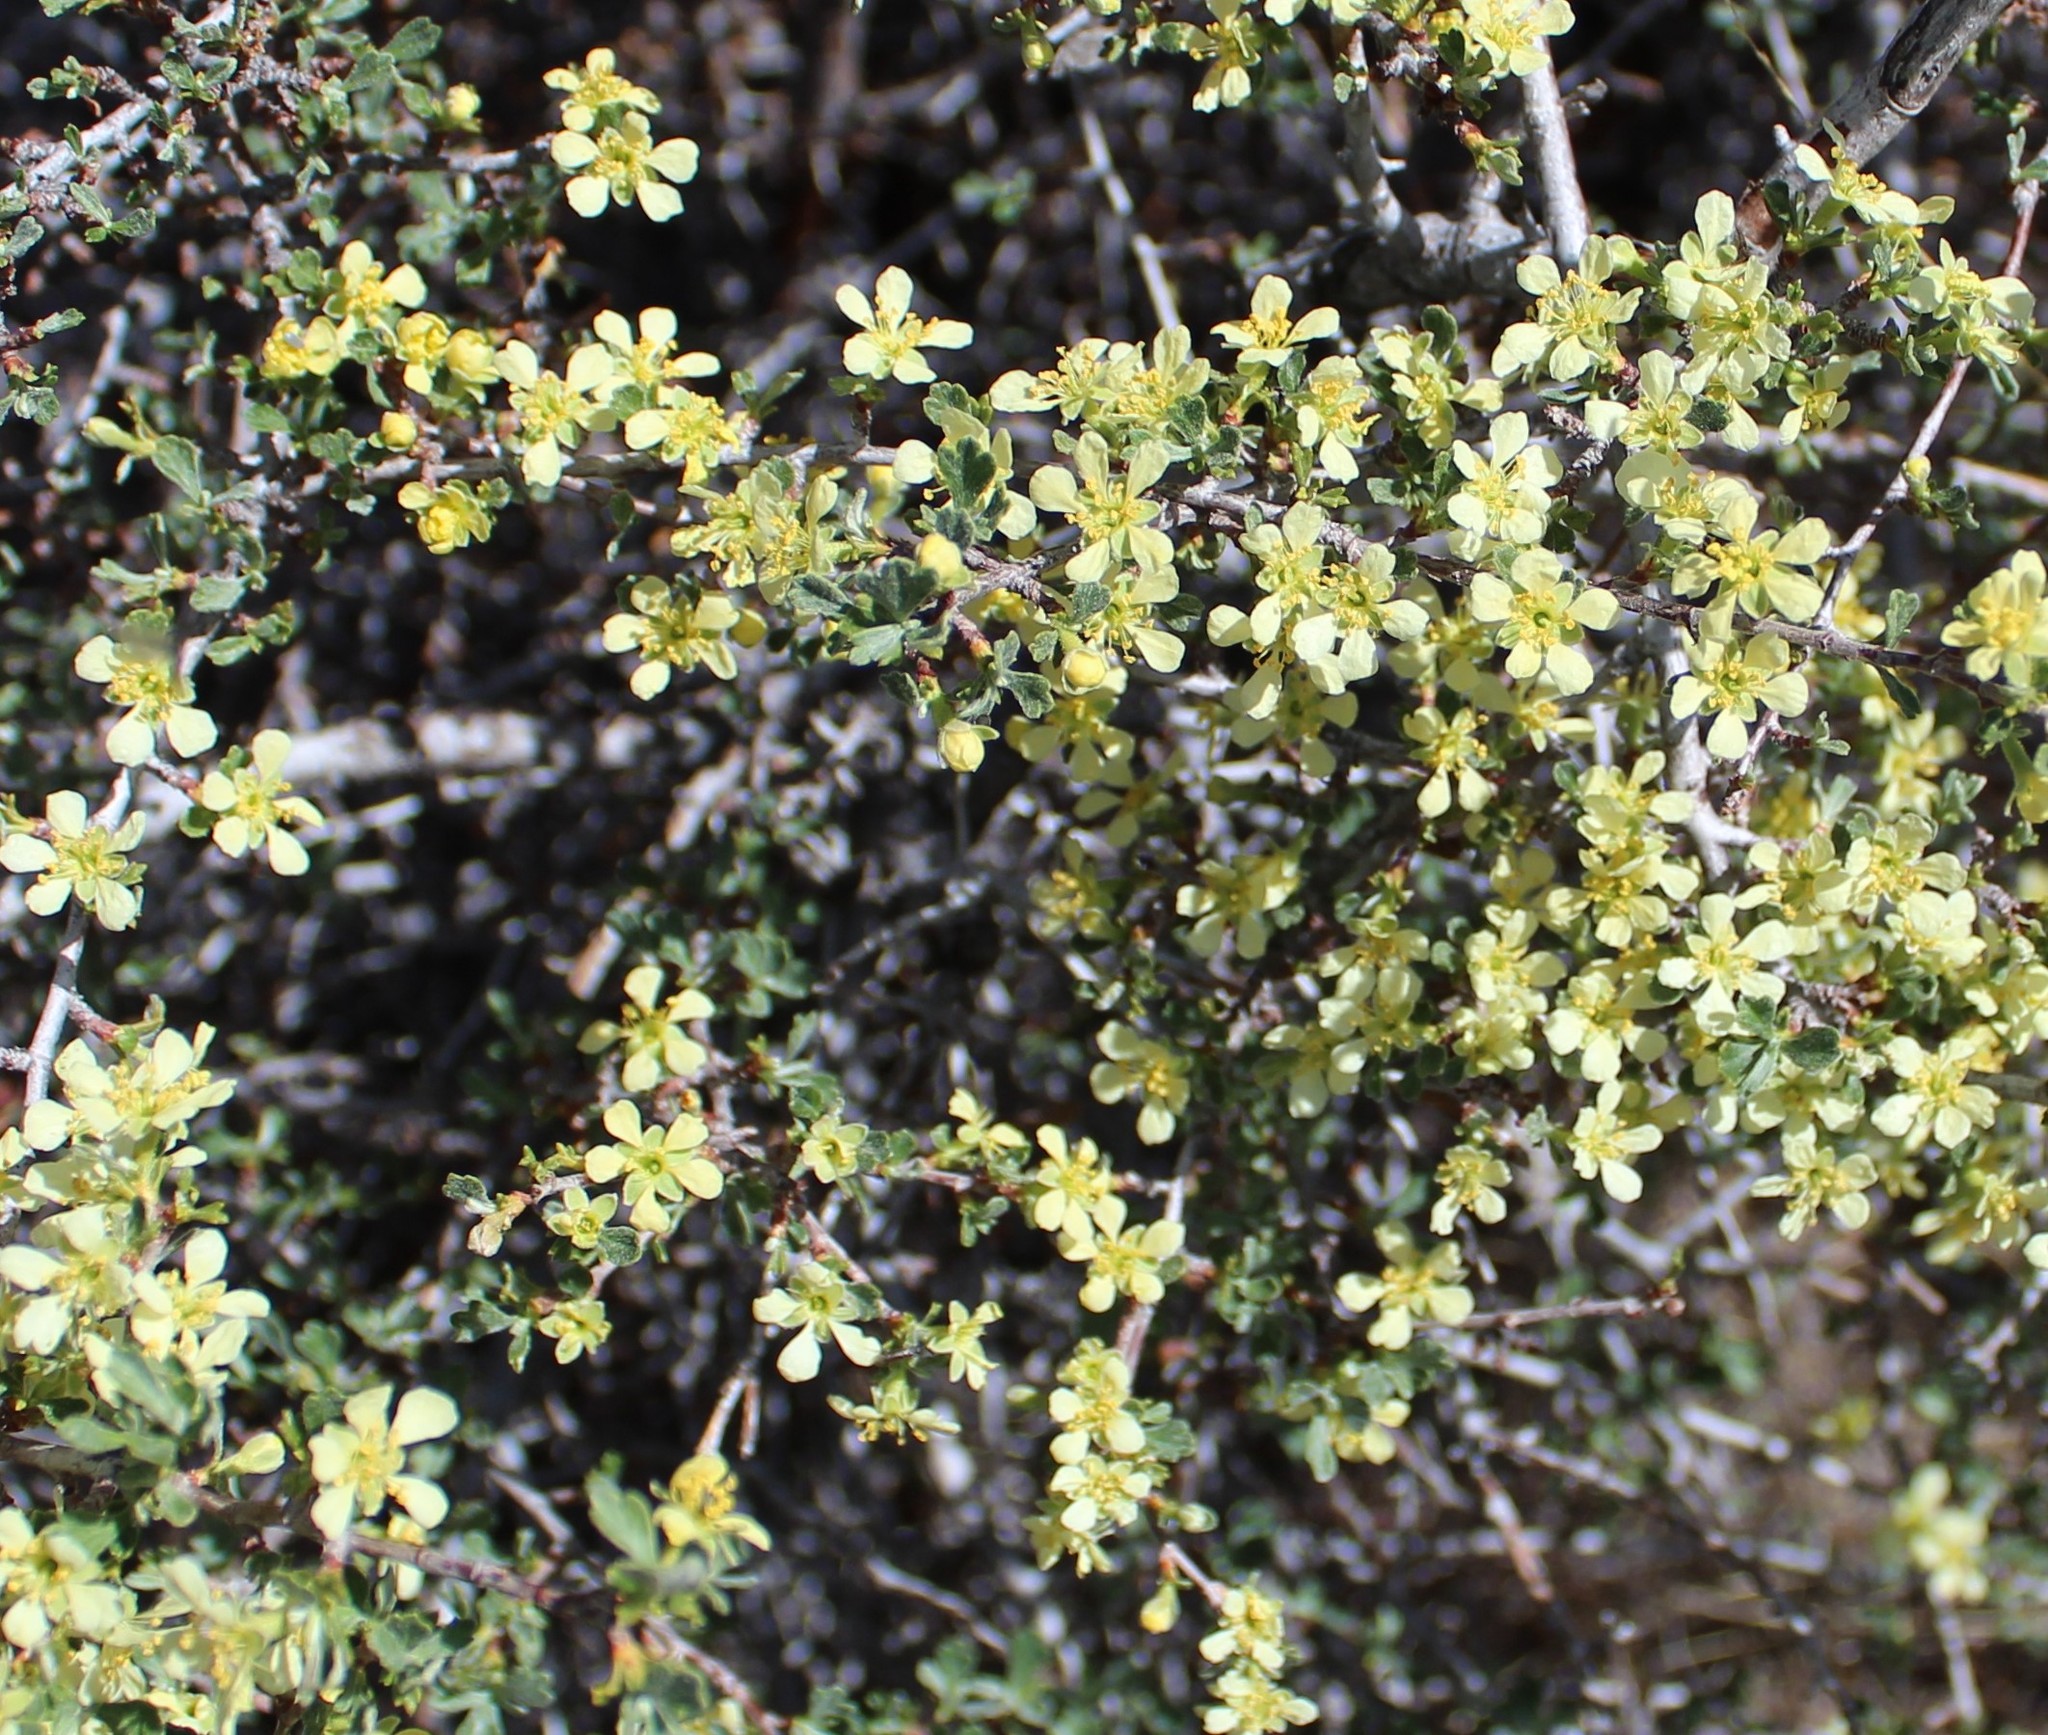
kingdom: Plantae
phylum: Tracheophyta
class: Magnoliopsida
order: Rosales
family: Rosaceae
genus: Purshia
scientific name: Purshia tridentata
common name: Antelope bitterbrush
